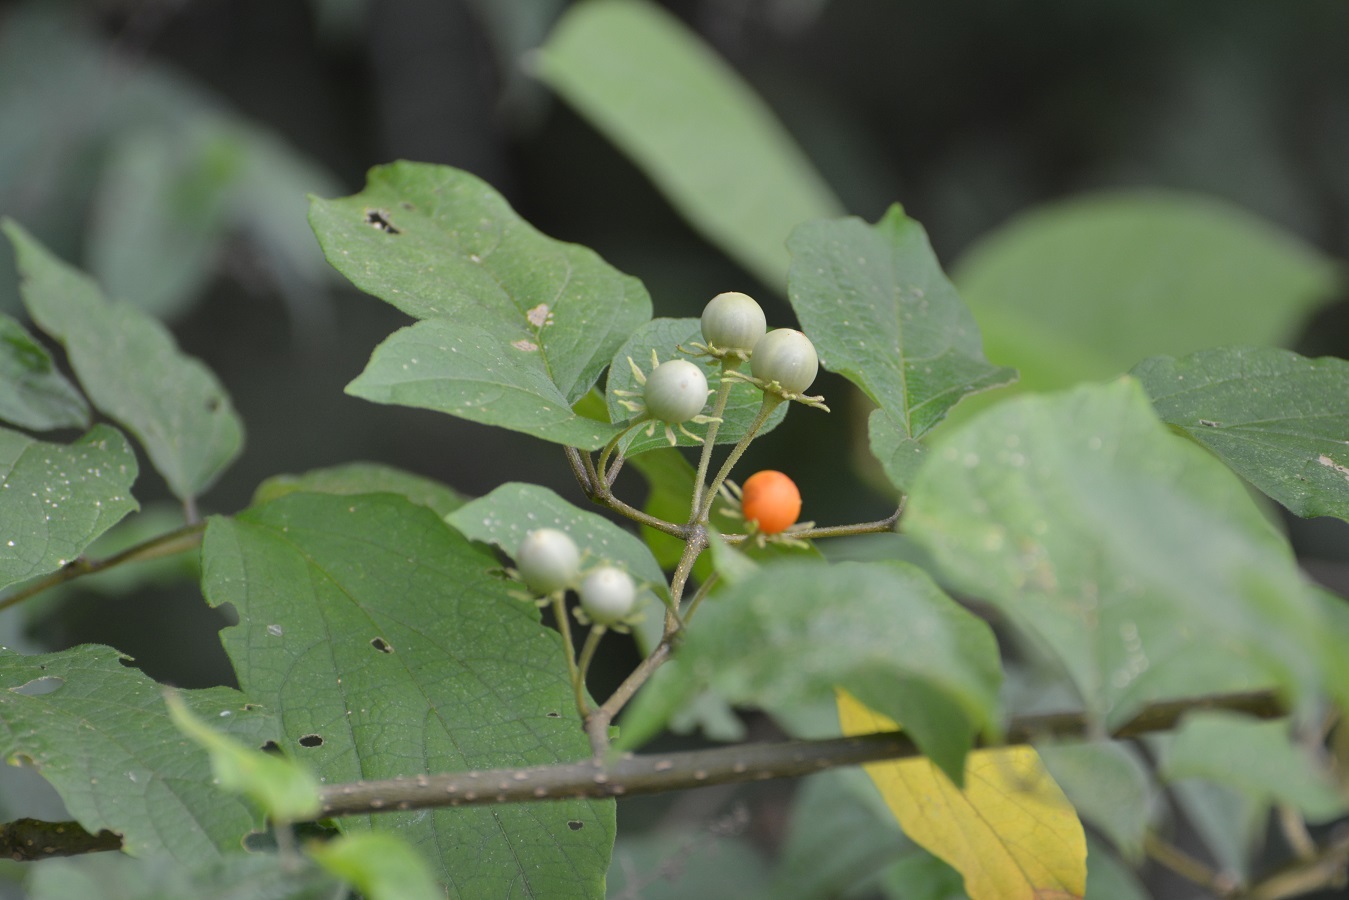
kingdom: Plantae
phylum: Tracheophyta
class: Magnoliopsida
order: Solanales
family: Solanaceae
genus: Lycianthes
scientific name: Lycianthes scandens
